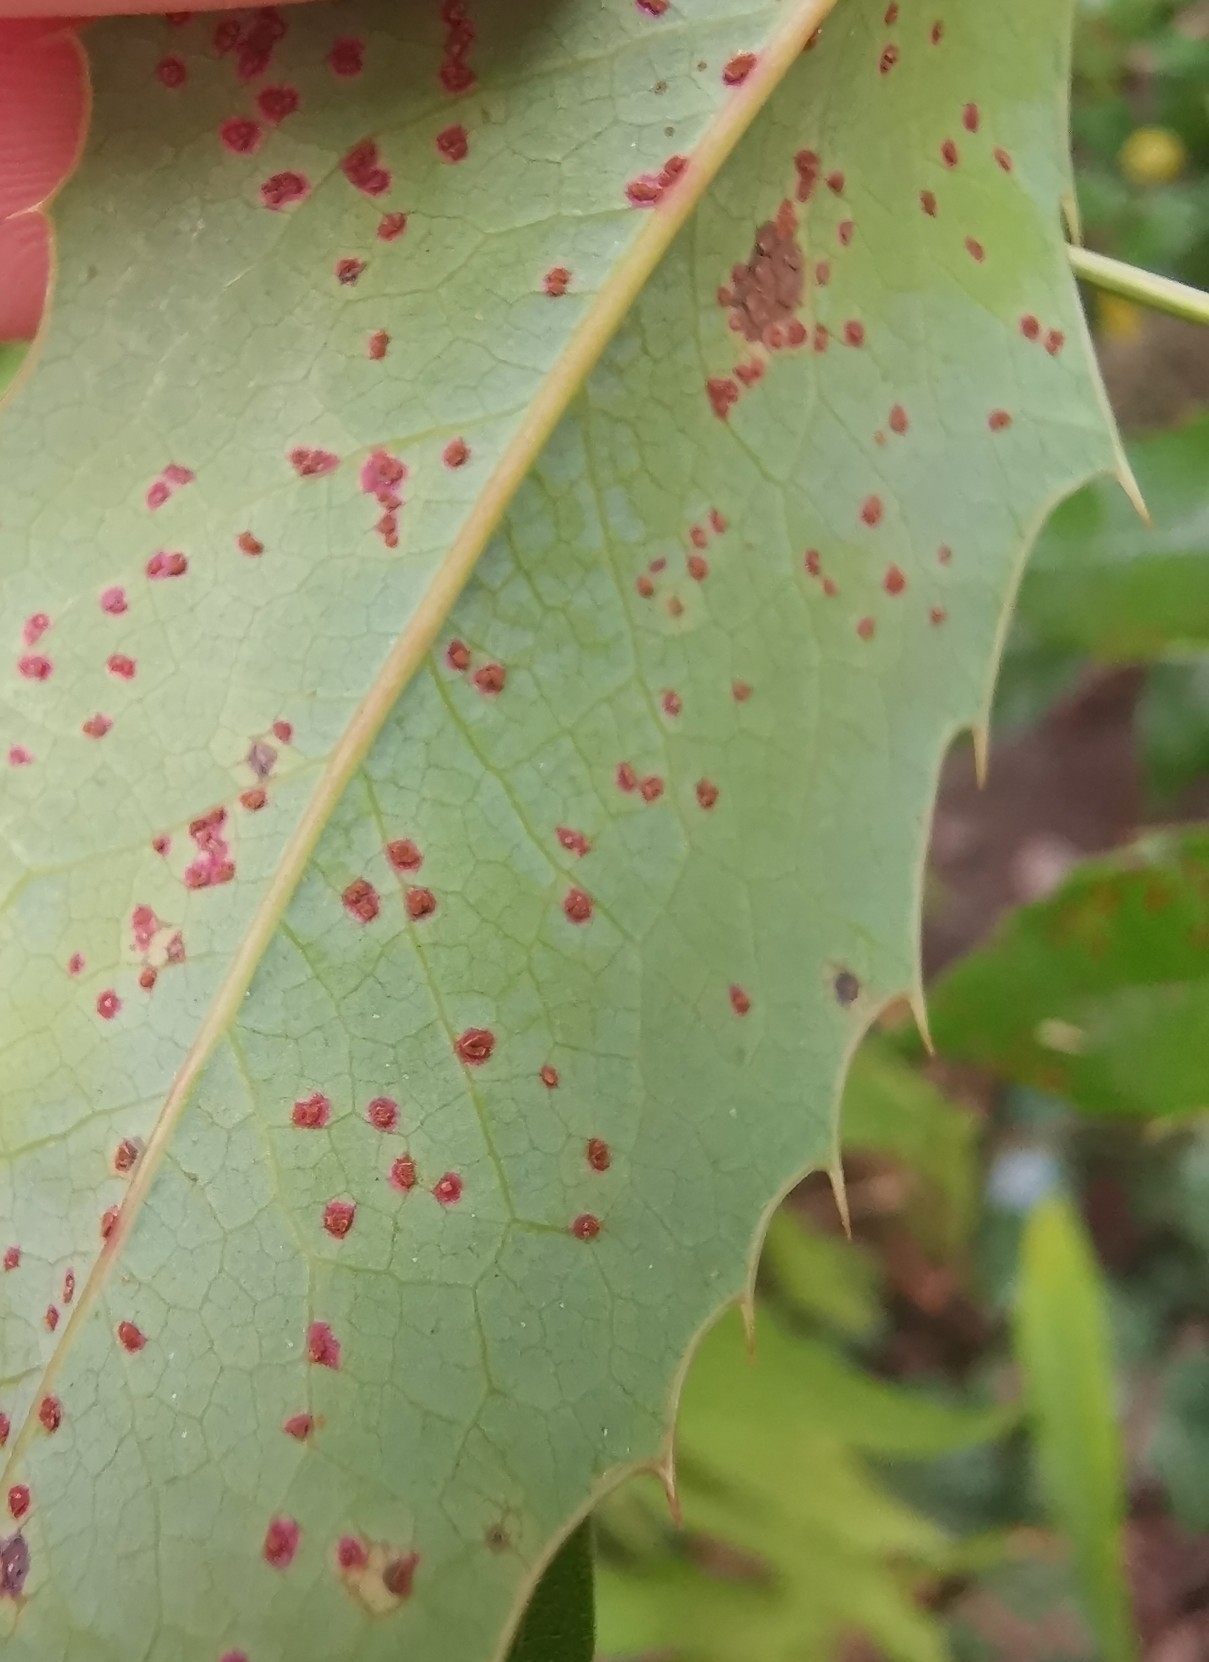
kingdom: Fungi
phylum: Basidiomycota
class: Pucciniomycetes
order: Pucciniales
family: Pucciniaceae
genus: Cumminsiella
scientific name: Cumminsiella mirabilissima
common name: Mahonia rust
